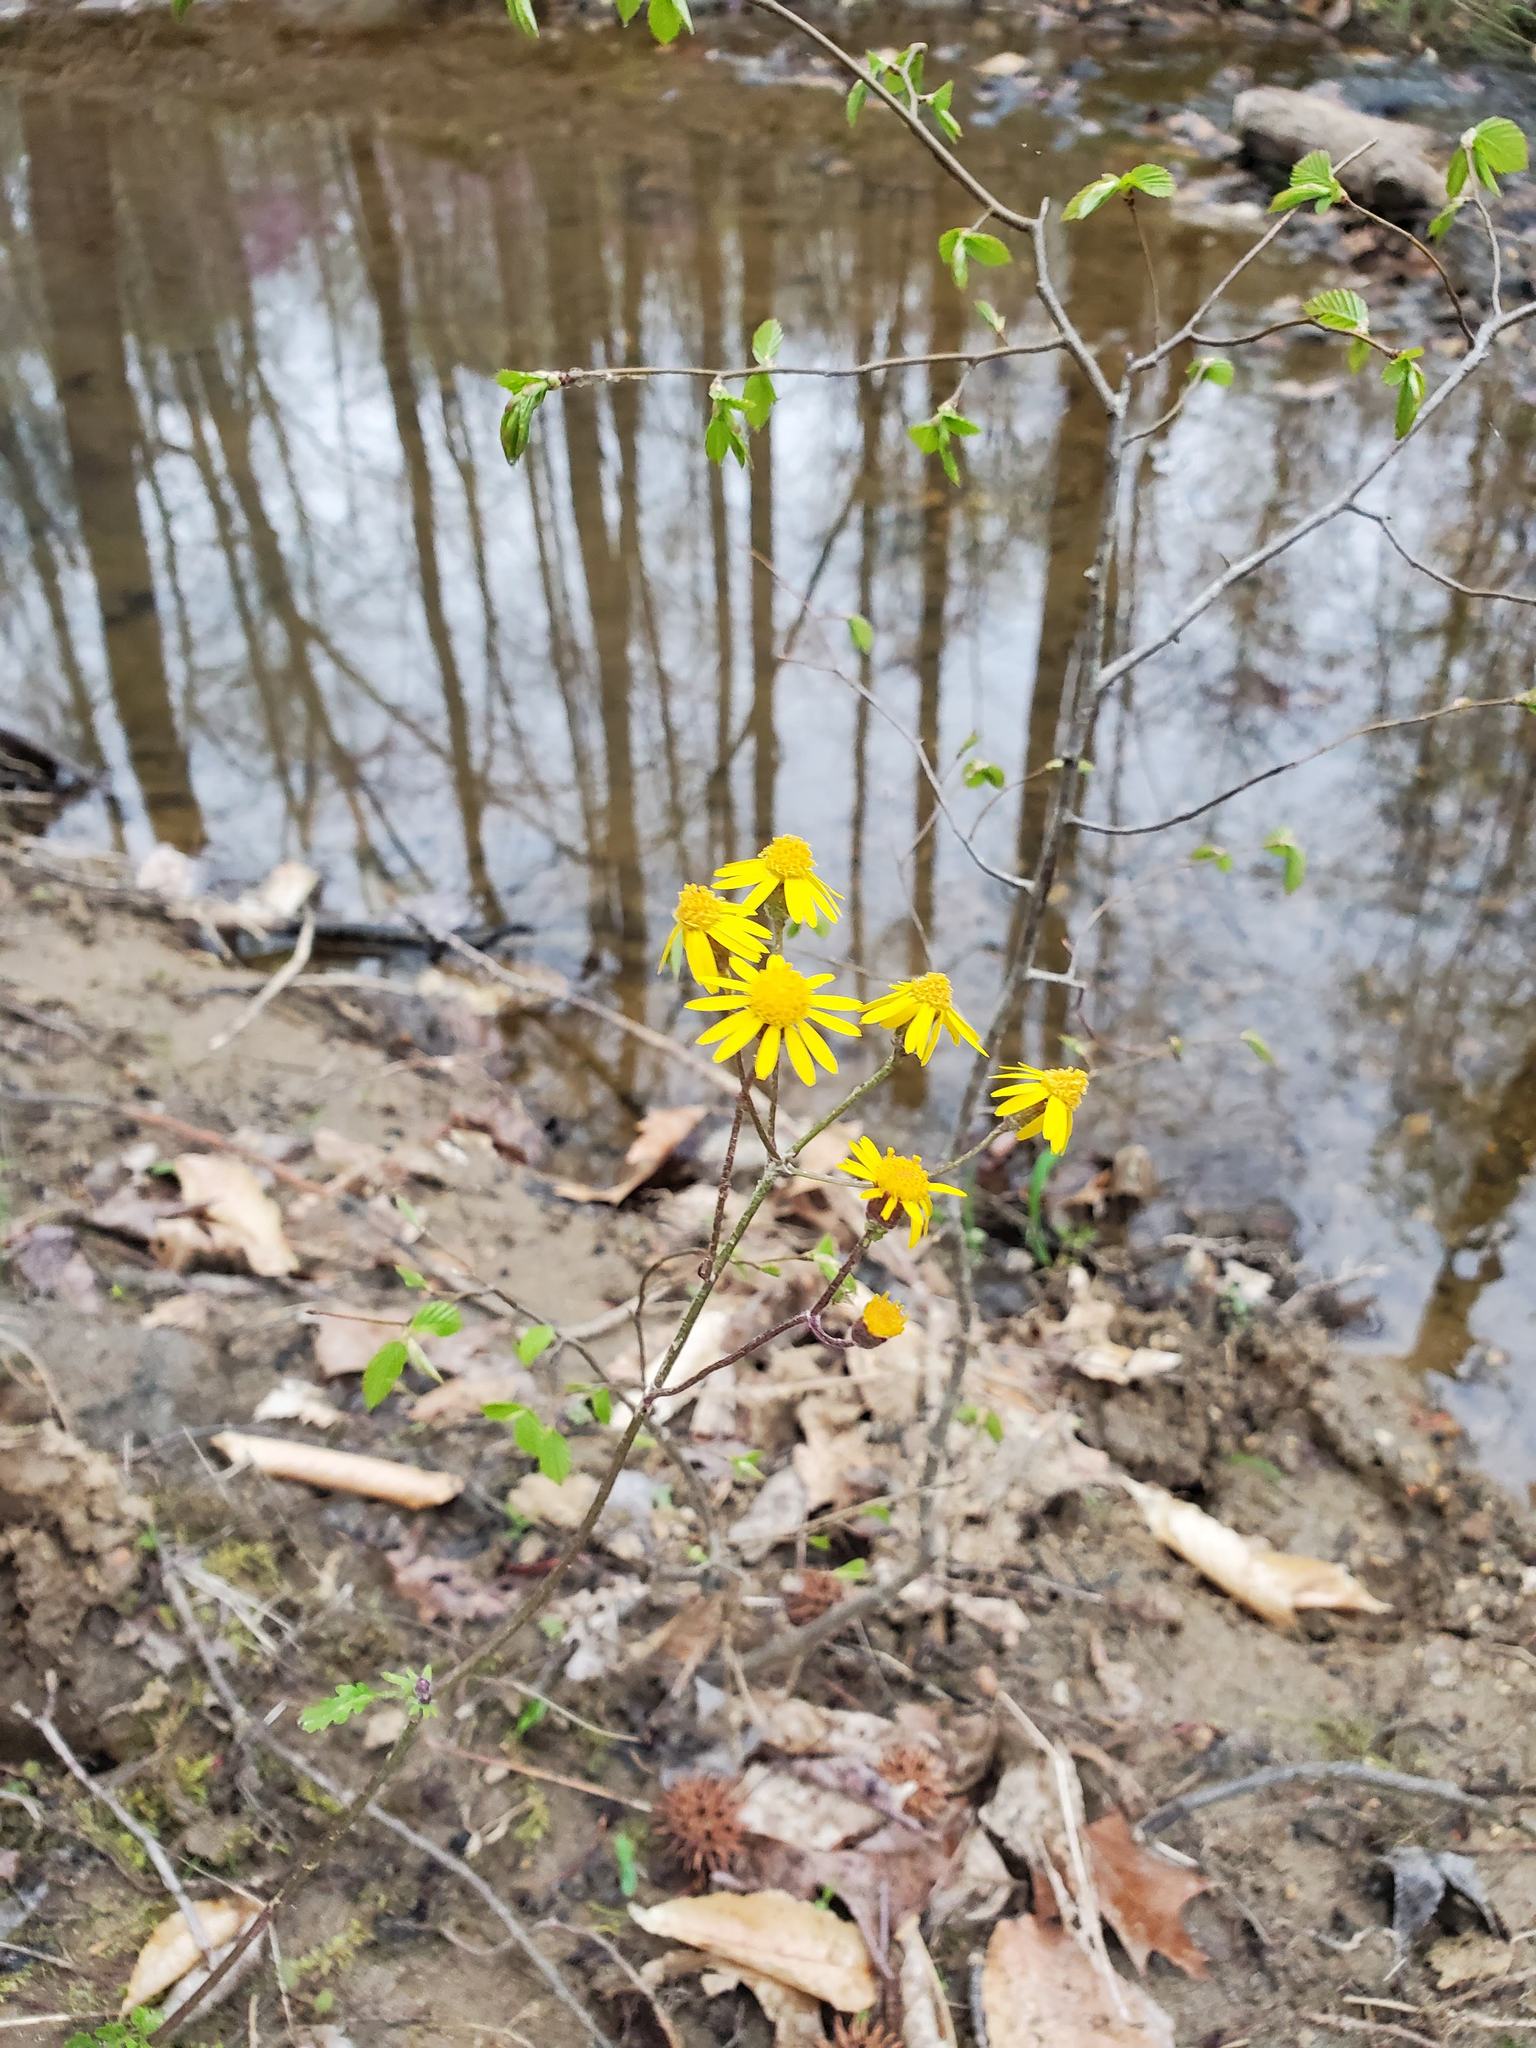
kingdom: Plantae
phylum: Tracheophyta
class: Magnoliopsida
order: Asterales
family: Asteraceae
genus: Packera
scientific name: Packera aurea
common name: Golden groundsel
